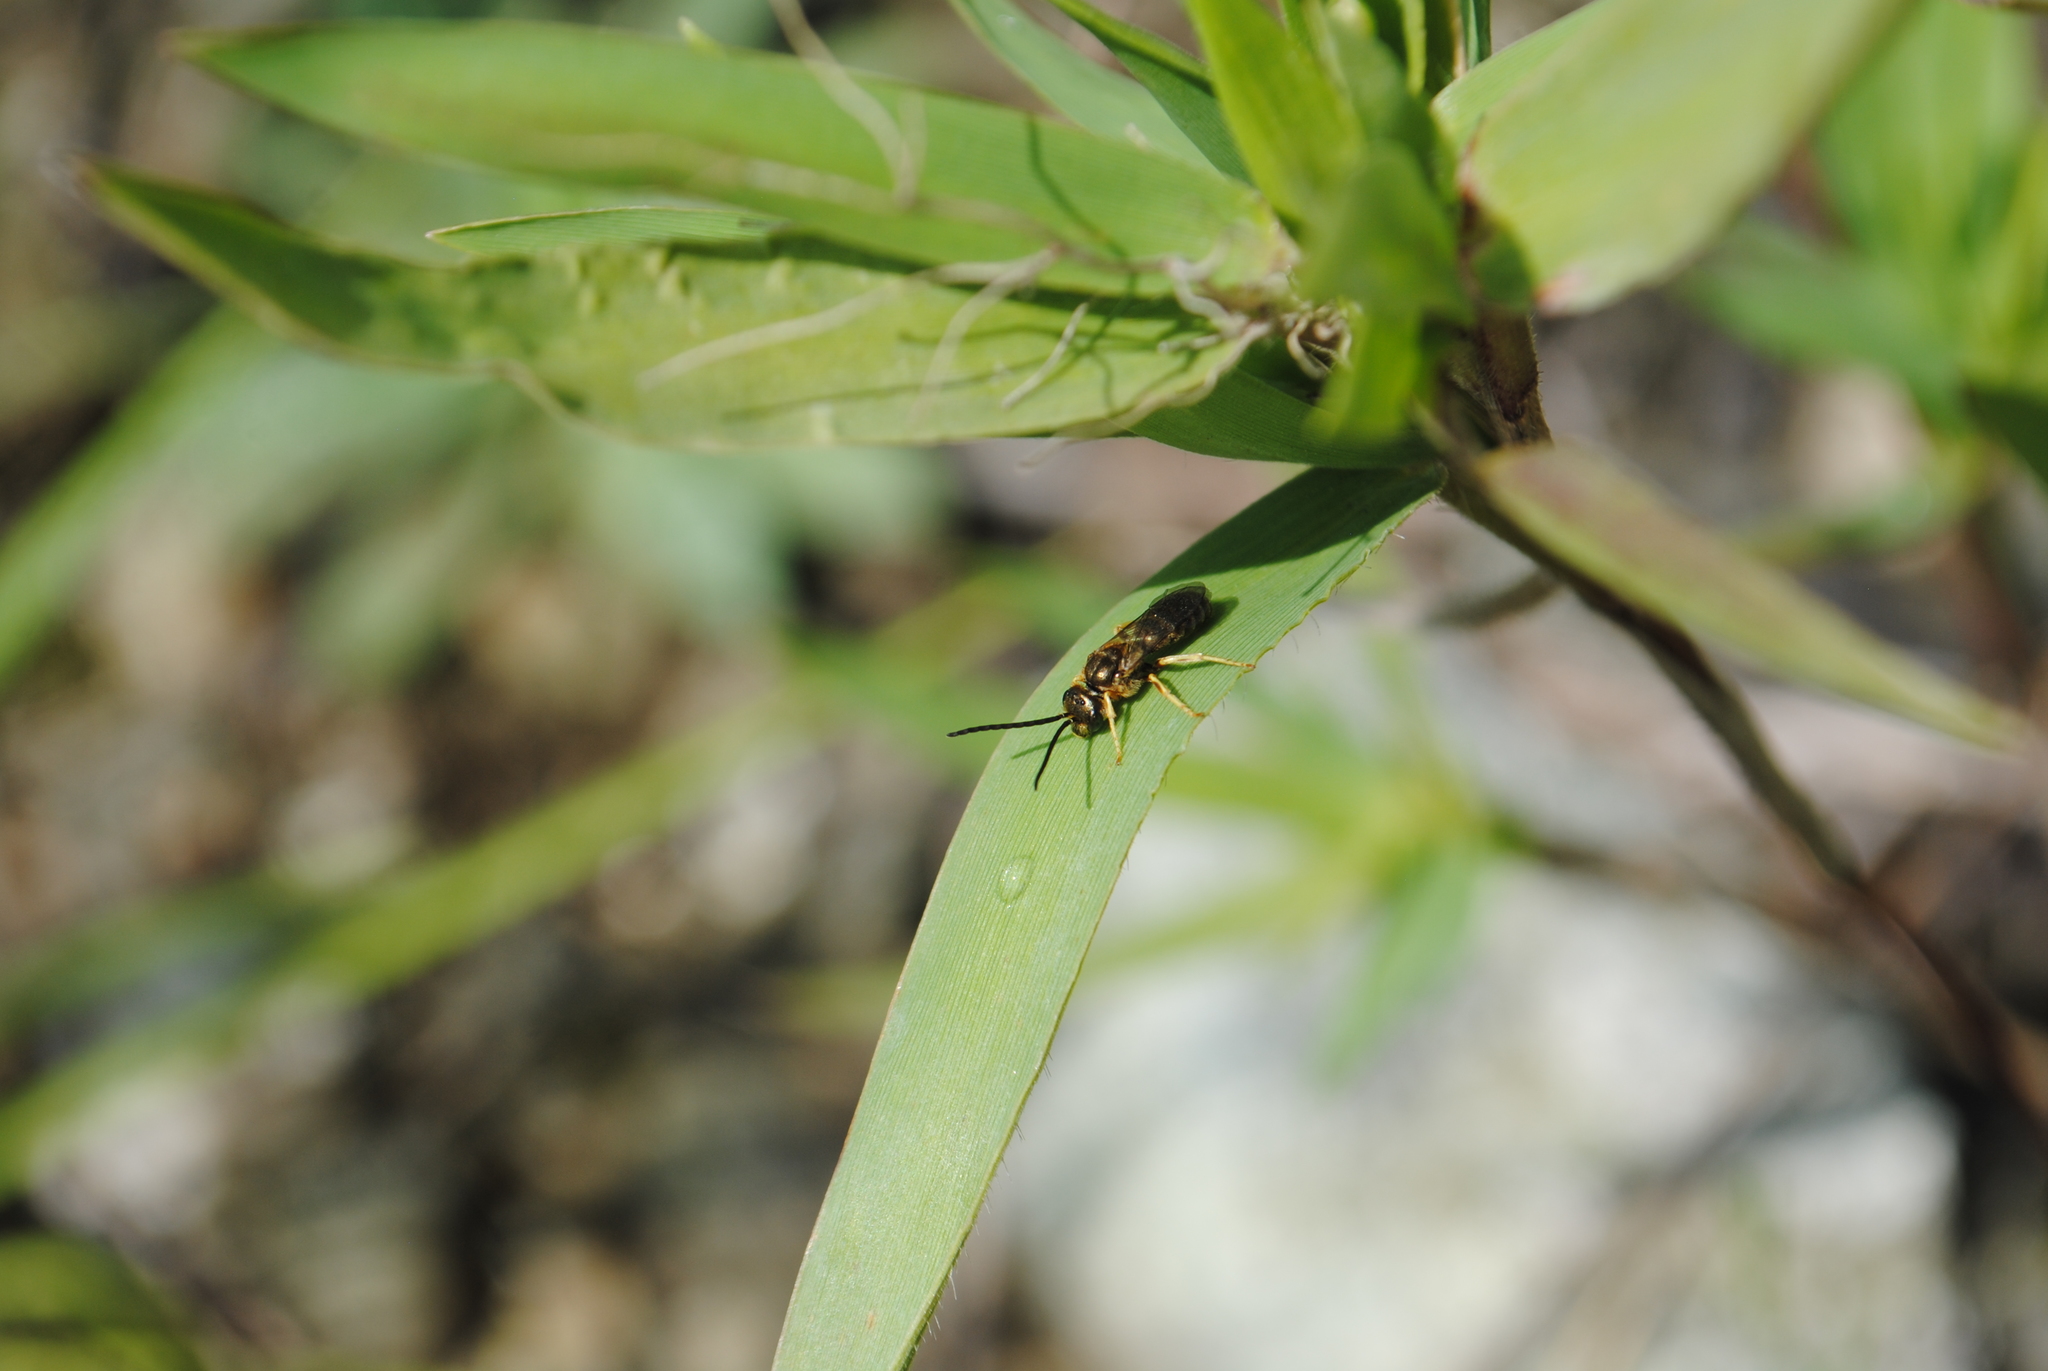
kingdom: Animalia
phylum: Arthropoda
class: Insecta
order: Hymenoptera
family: Halictidae
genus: Halictus
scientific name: Halictus confusus
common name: Southern bronze furrow bee
